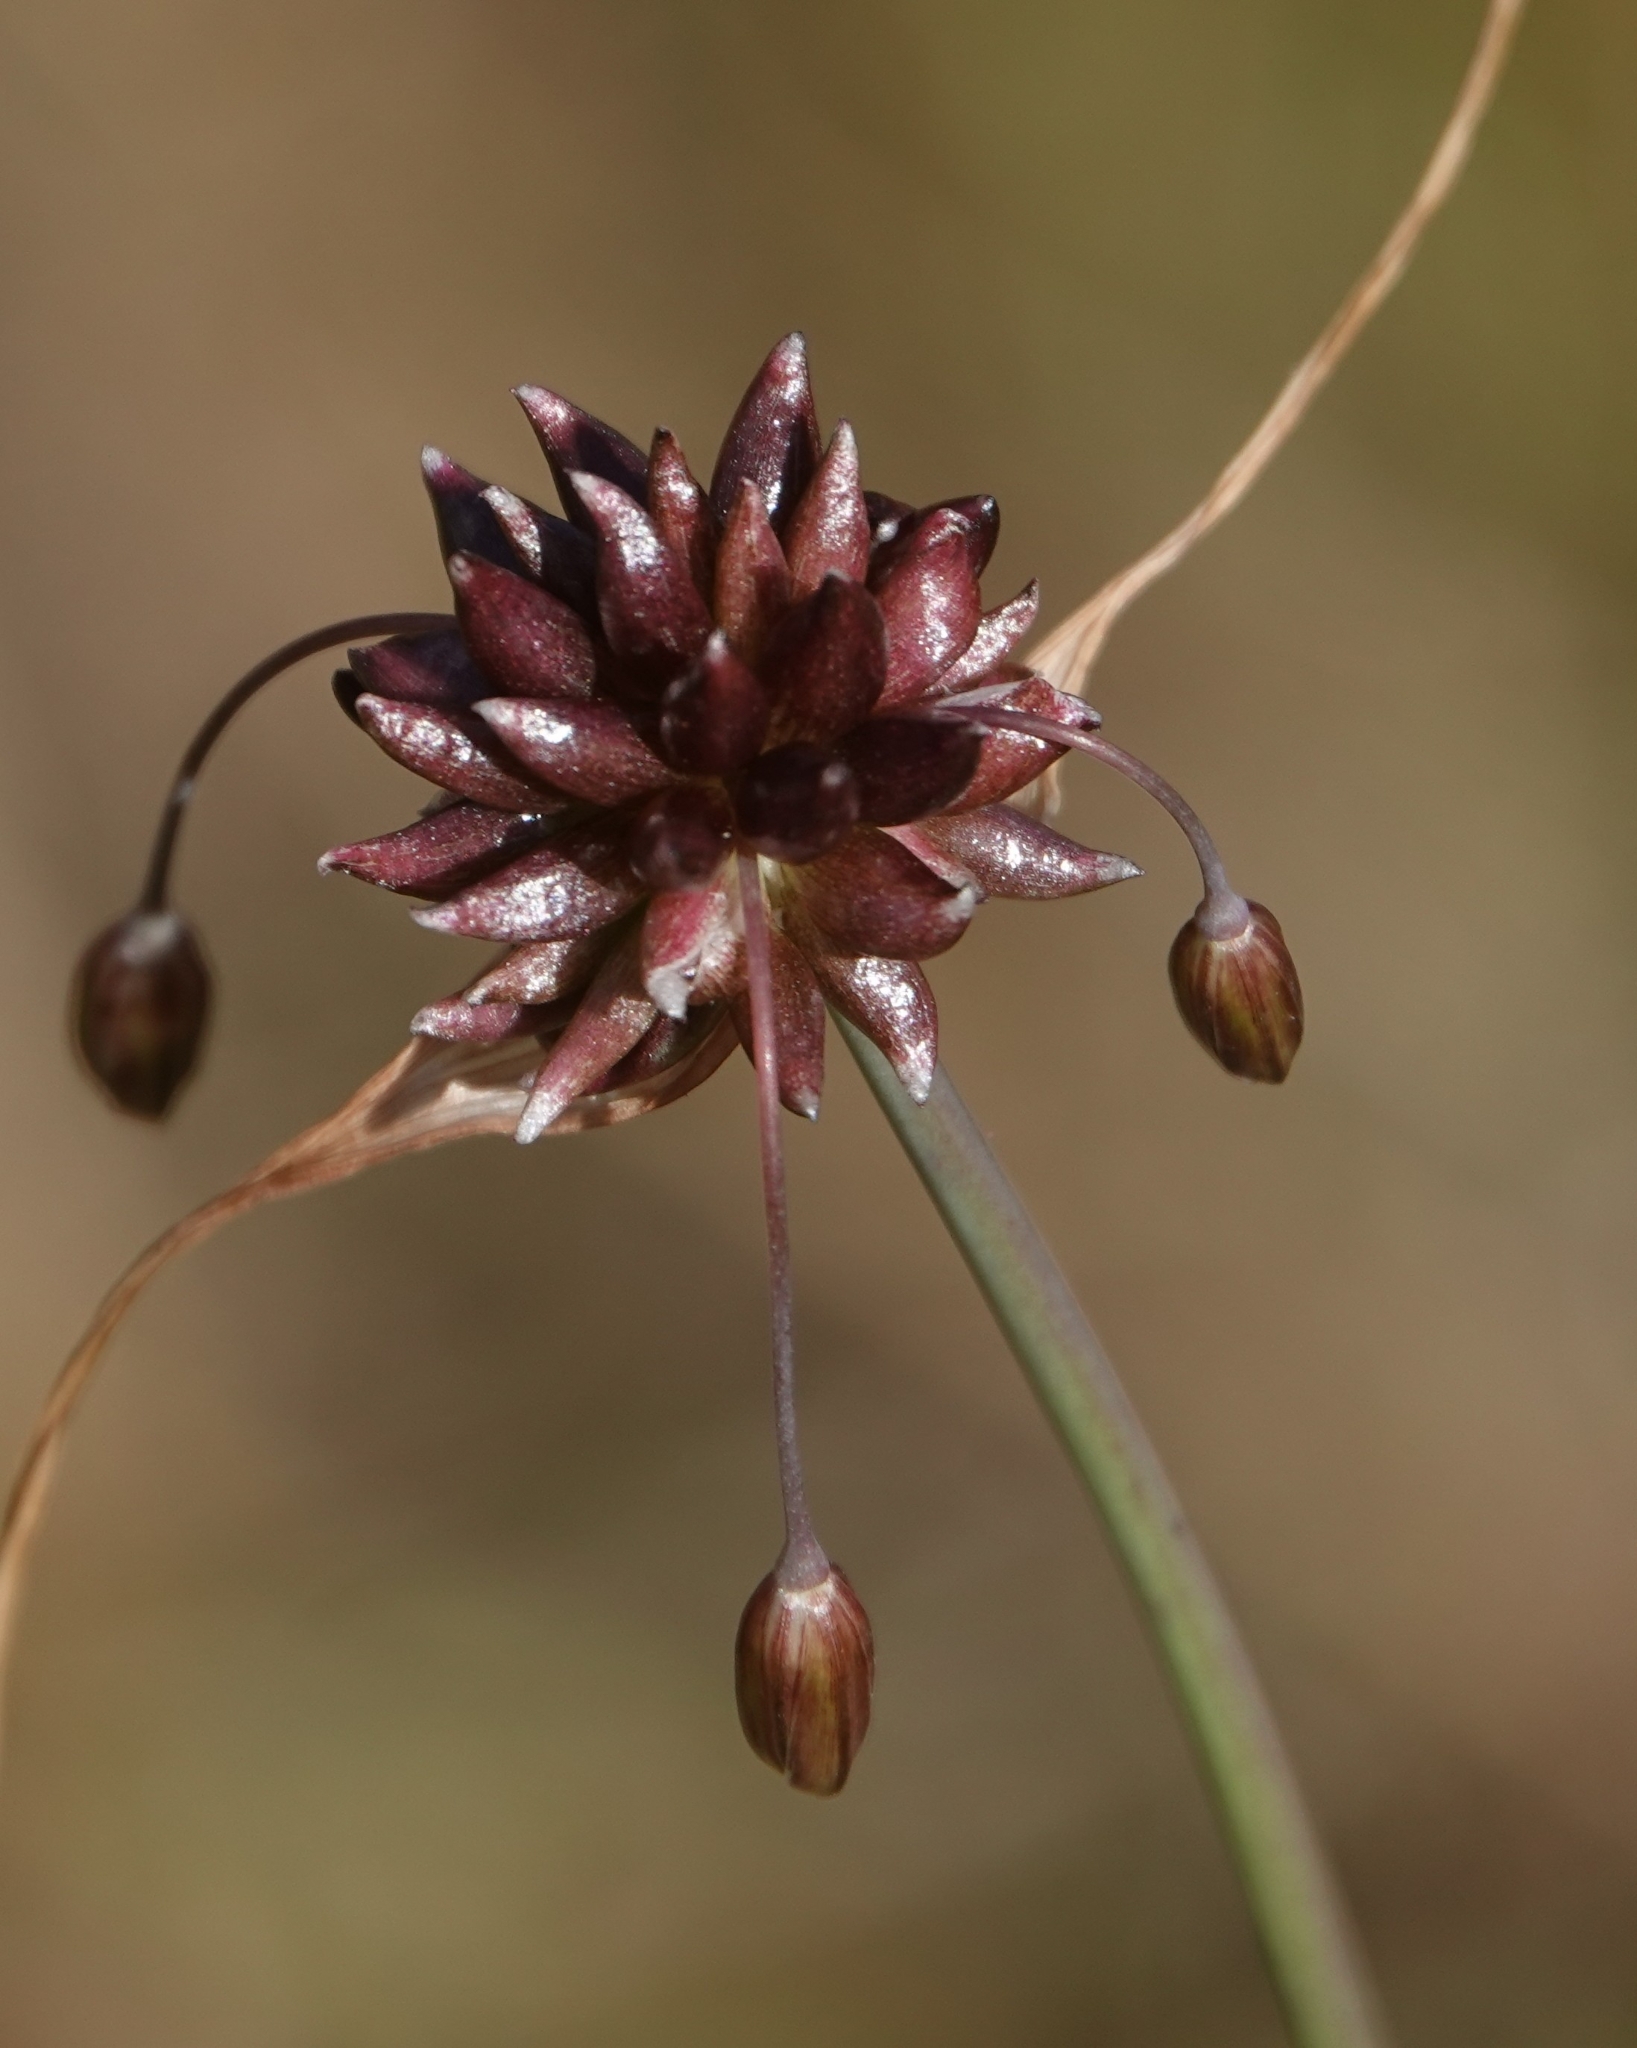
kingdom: Plantae
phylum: Tracheophyta
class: Liliopsida
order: Asparagales
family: Amaryllidaceae
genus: Allium
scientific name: Allium oleraceum
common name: Field garlic
